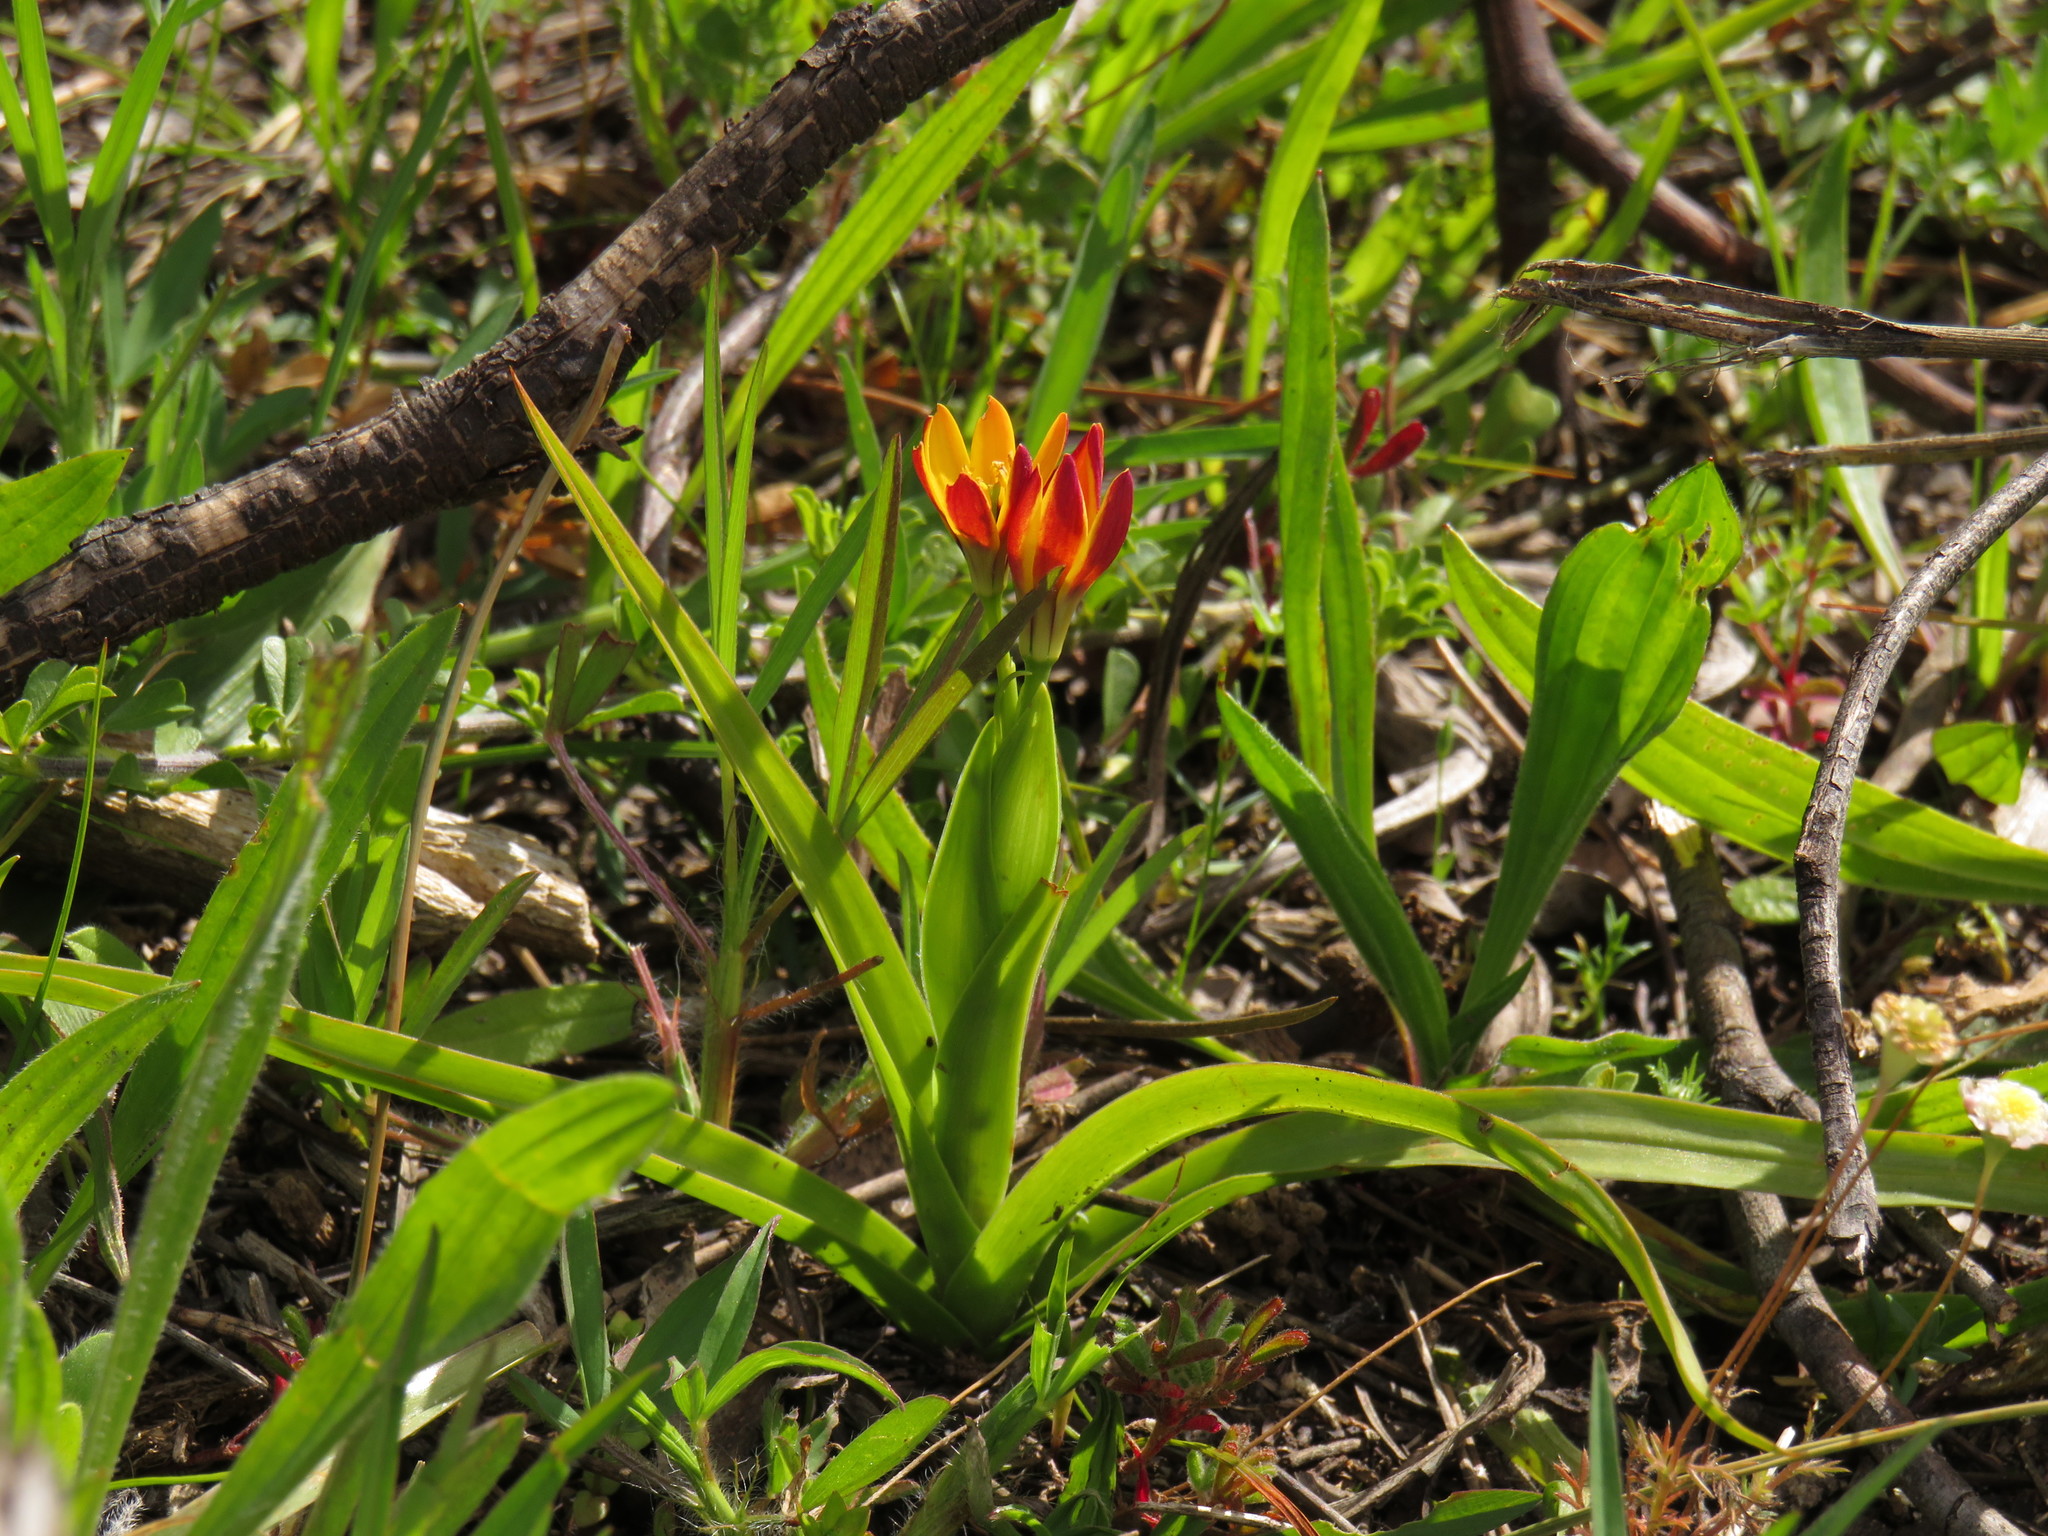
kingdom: Plantae
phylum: Tracheophyta
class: Liliopsida
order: Liliales
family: Colchicaceae
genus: Baeometra
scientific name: Baeometra uniflora
